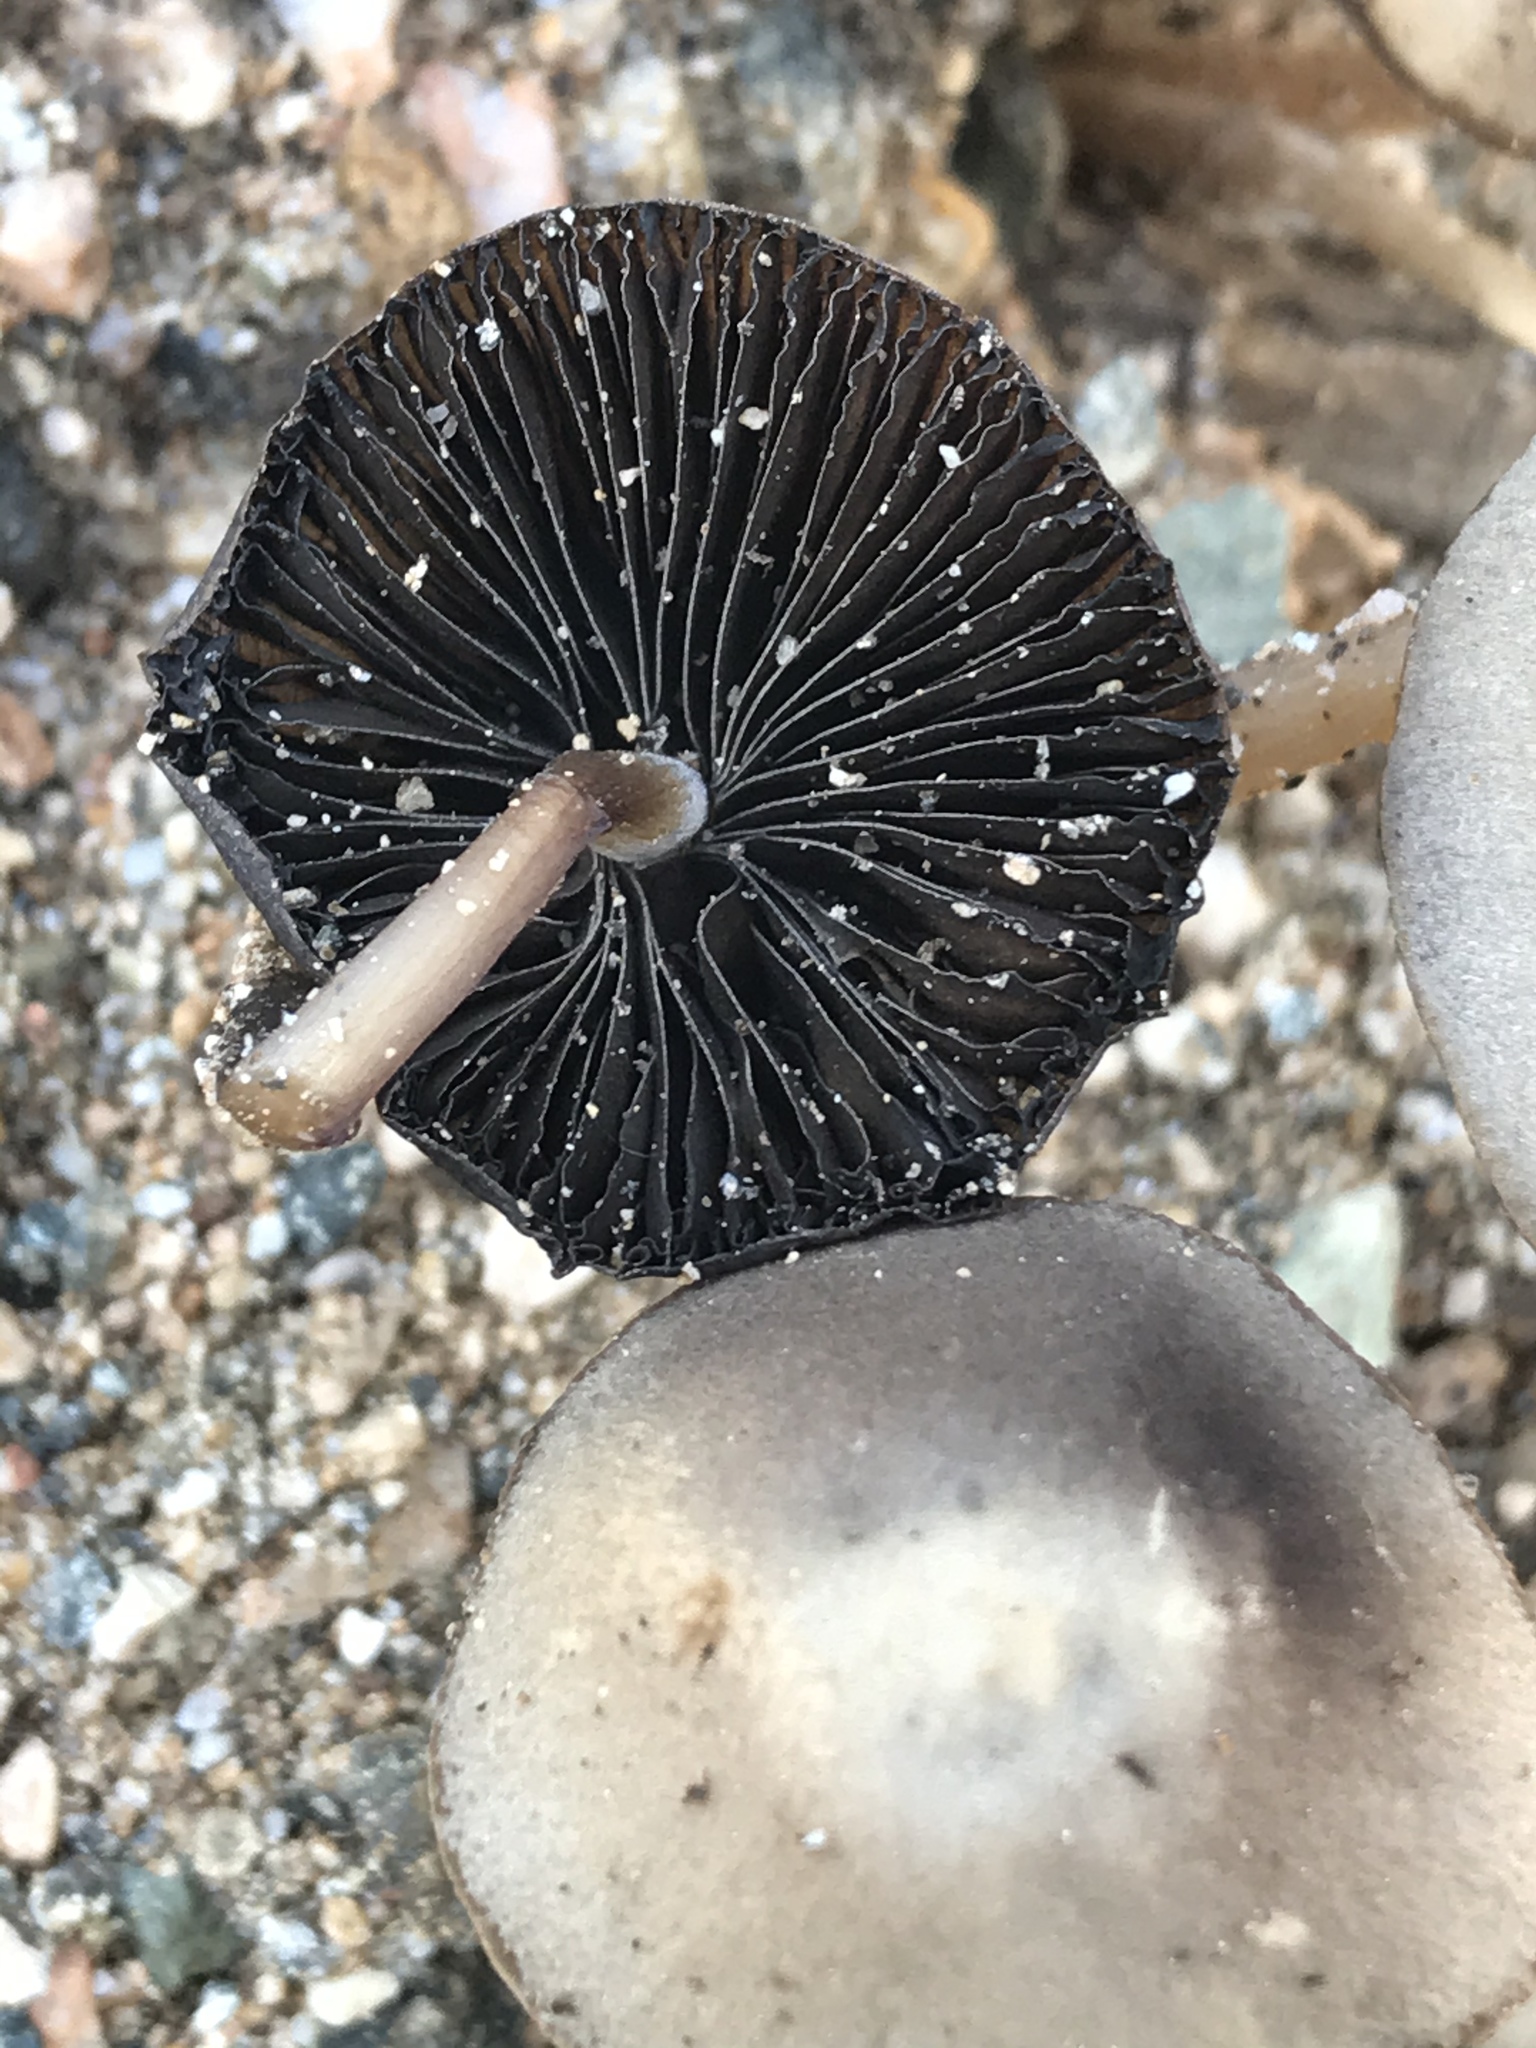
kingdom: Fungi
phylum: Basidiomycota
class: Agaricomycetes
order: Agaricales
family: Psathyrellaceae
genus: Psathyrella
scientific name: Psathyrella
